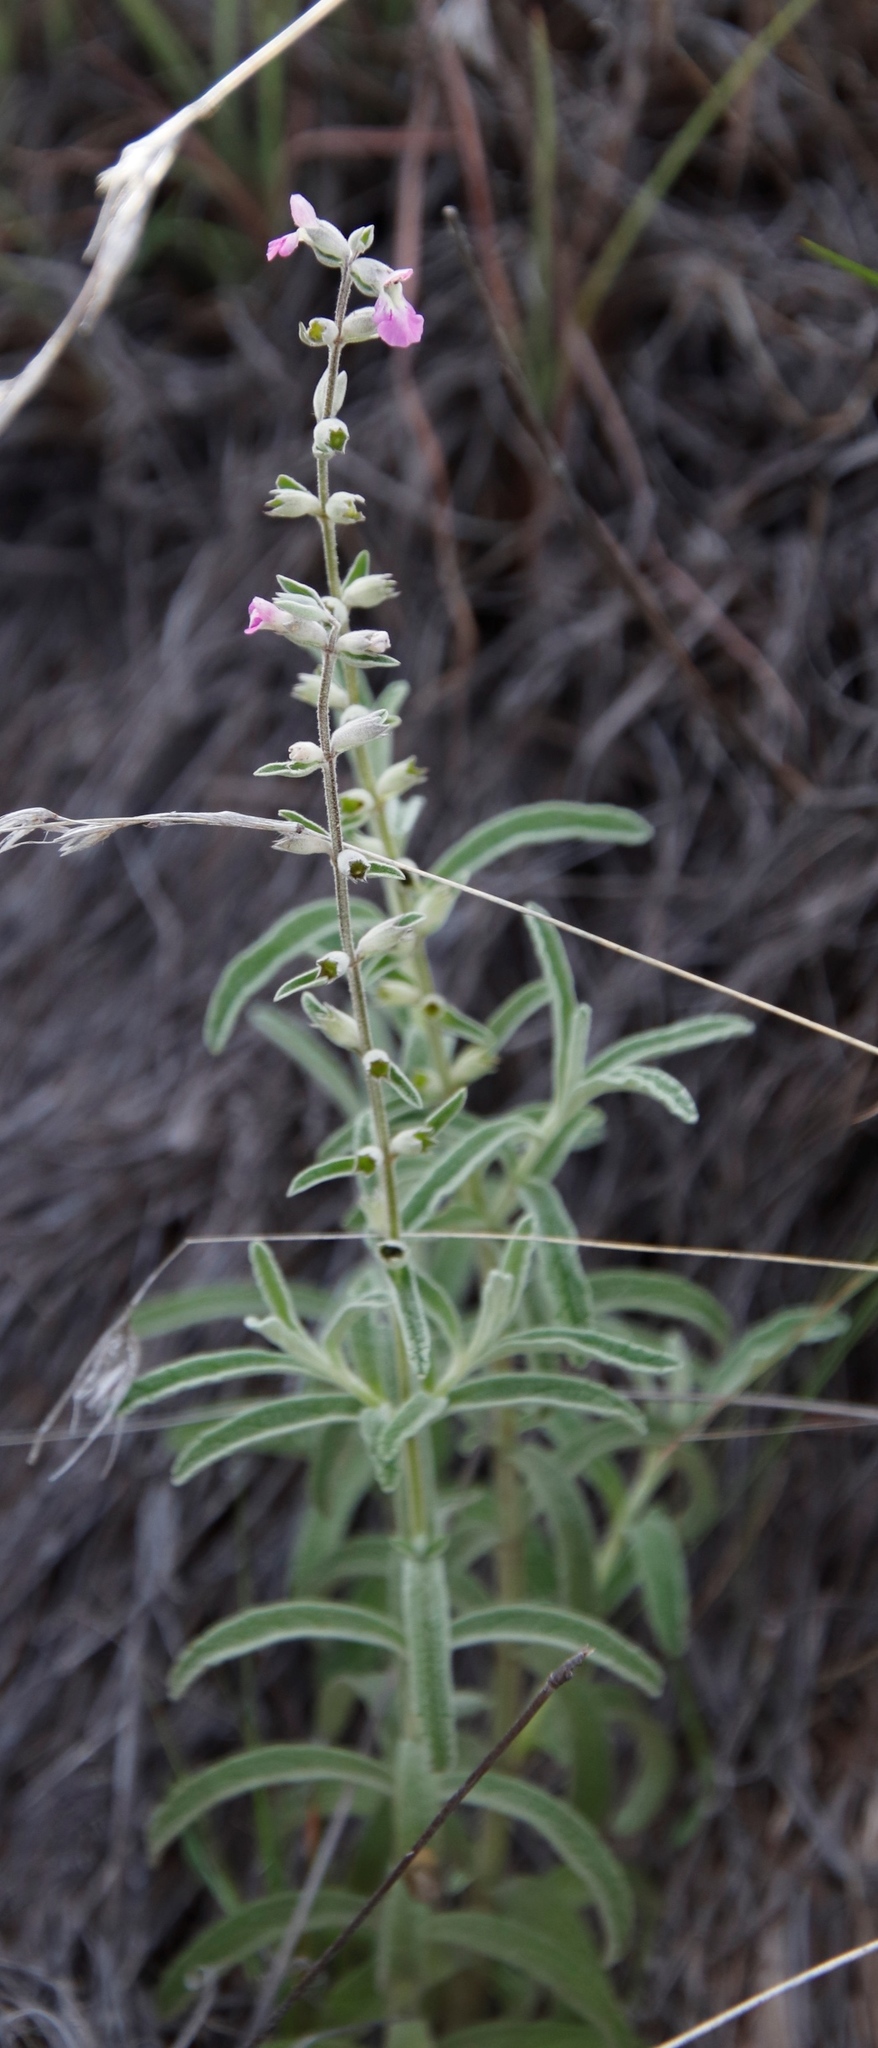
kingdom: Plantae
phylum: Tracheophyta
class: Magnoliopsida
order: Lamiales
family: Lamiaceae
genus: Stachys
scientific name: Stachys dregeana
